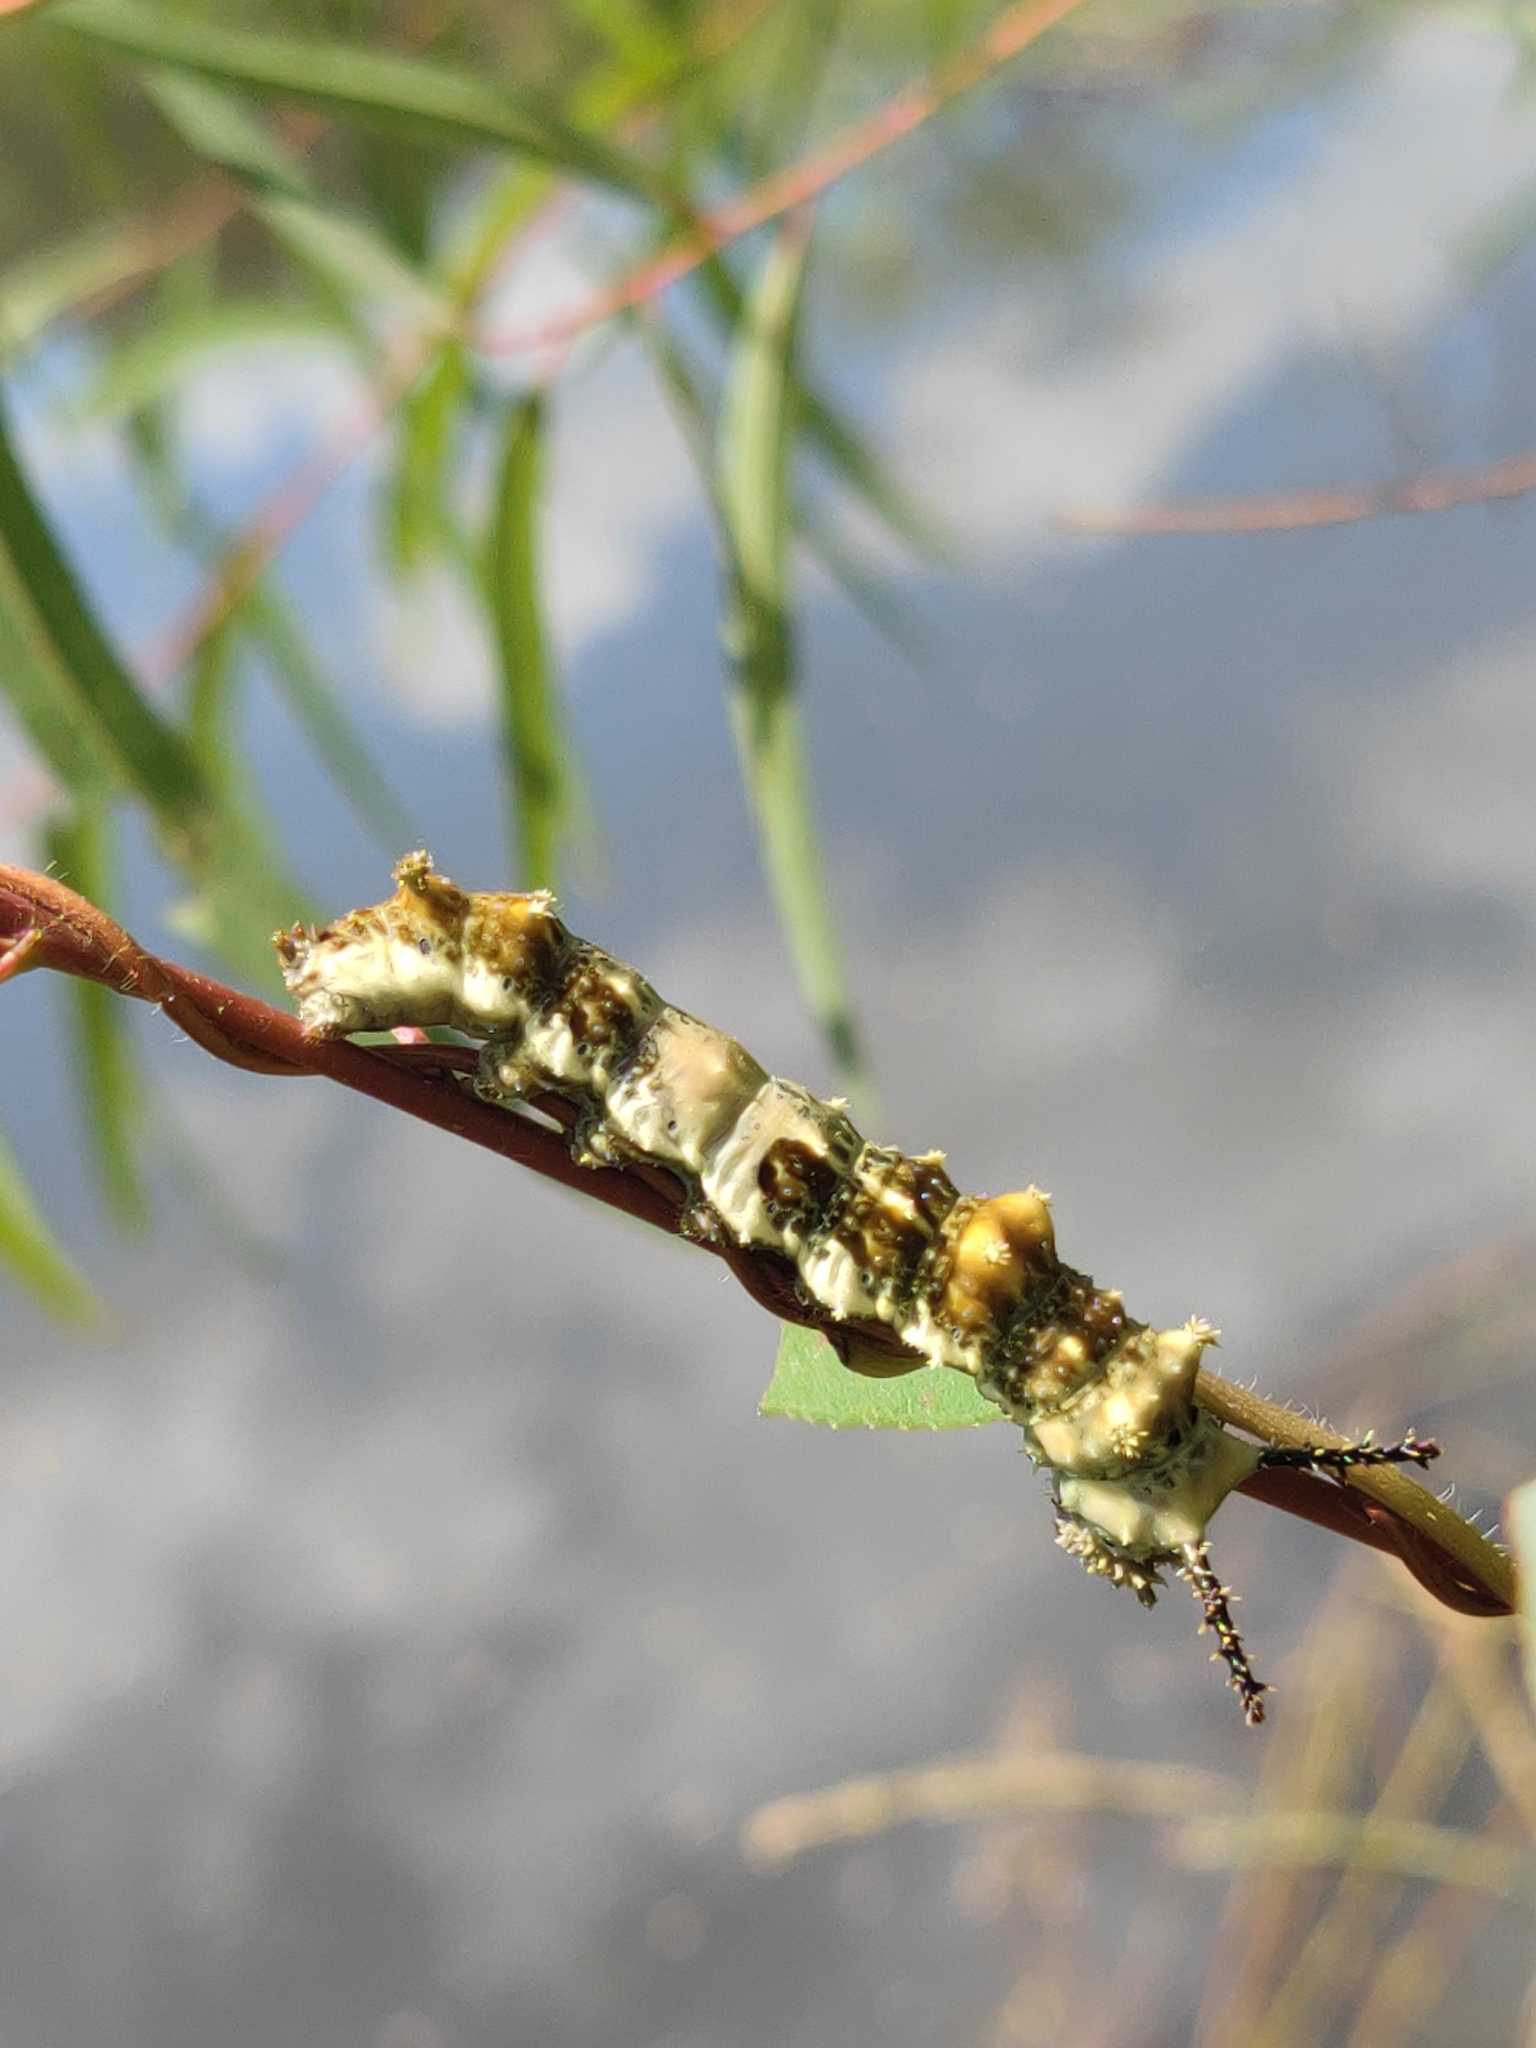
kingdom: Animalia
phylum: Arthropoda
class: Insecta
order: Lepidoptera
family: Nymphalidae
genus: Limenitis
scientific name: Limenitis archippus
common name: Viceroy
